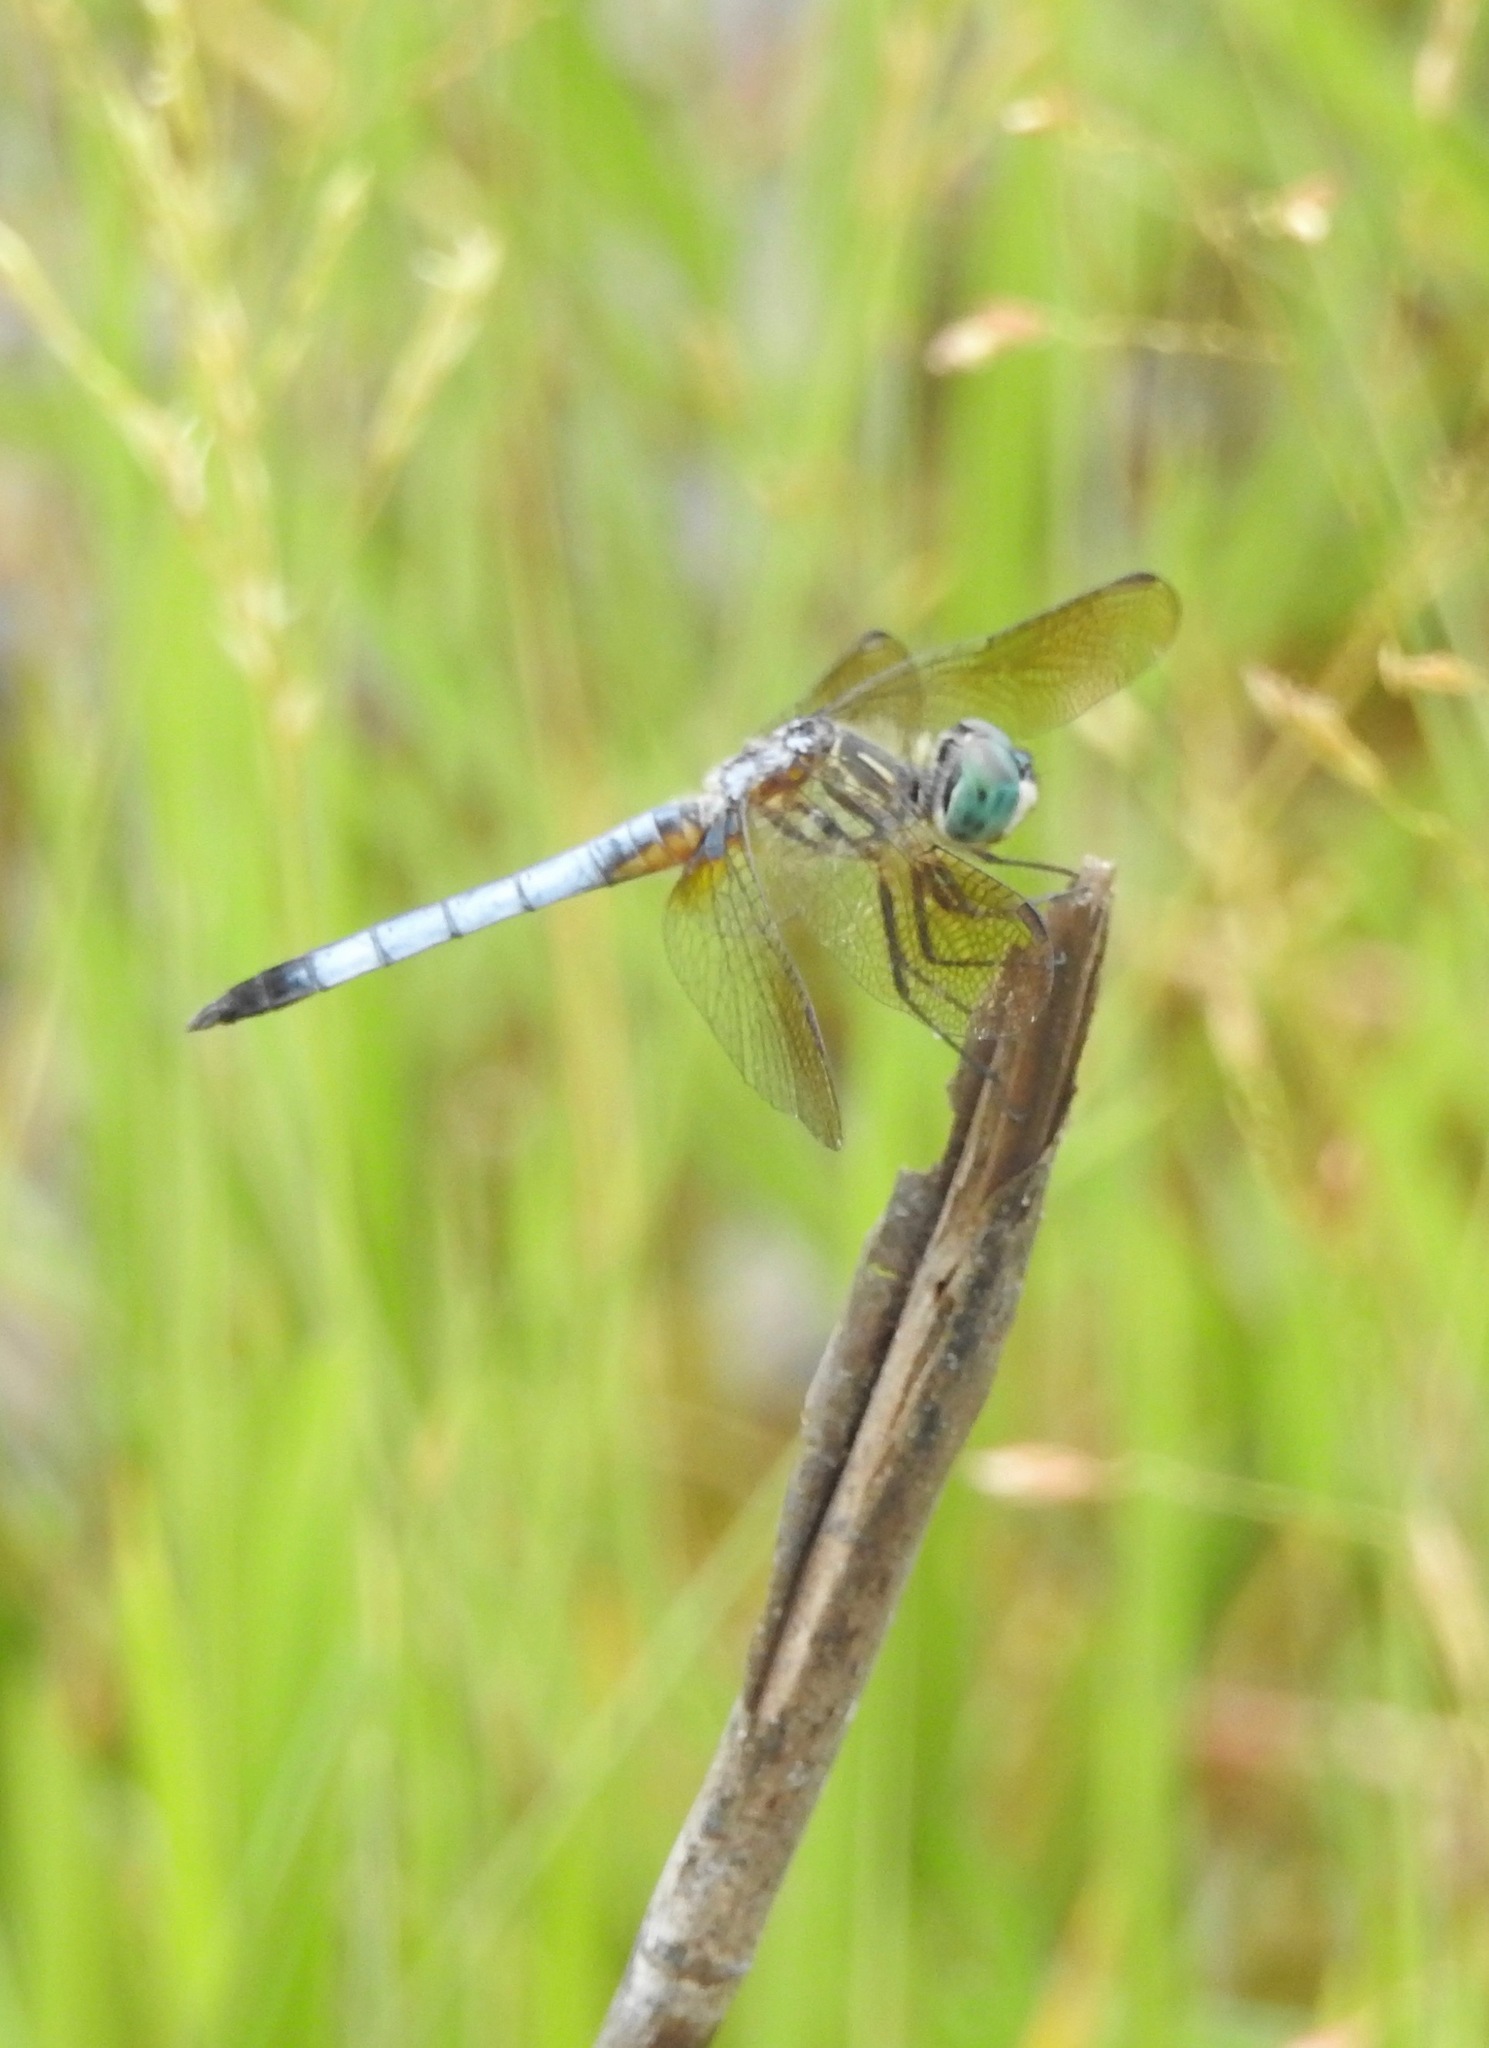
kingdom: Animalia
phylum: Arthropoda
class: Insecta
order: Odonata
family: Libellulidae
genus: Pachydiplax
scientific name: Pachydiplax longipennis
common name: Blue dasher
